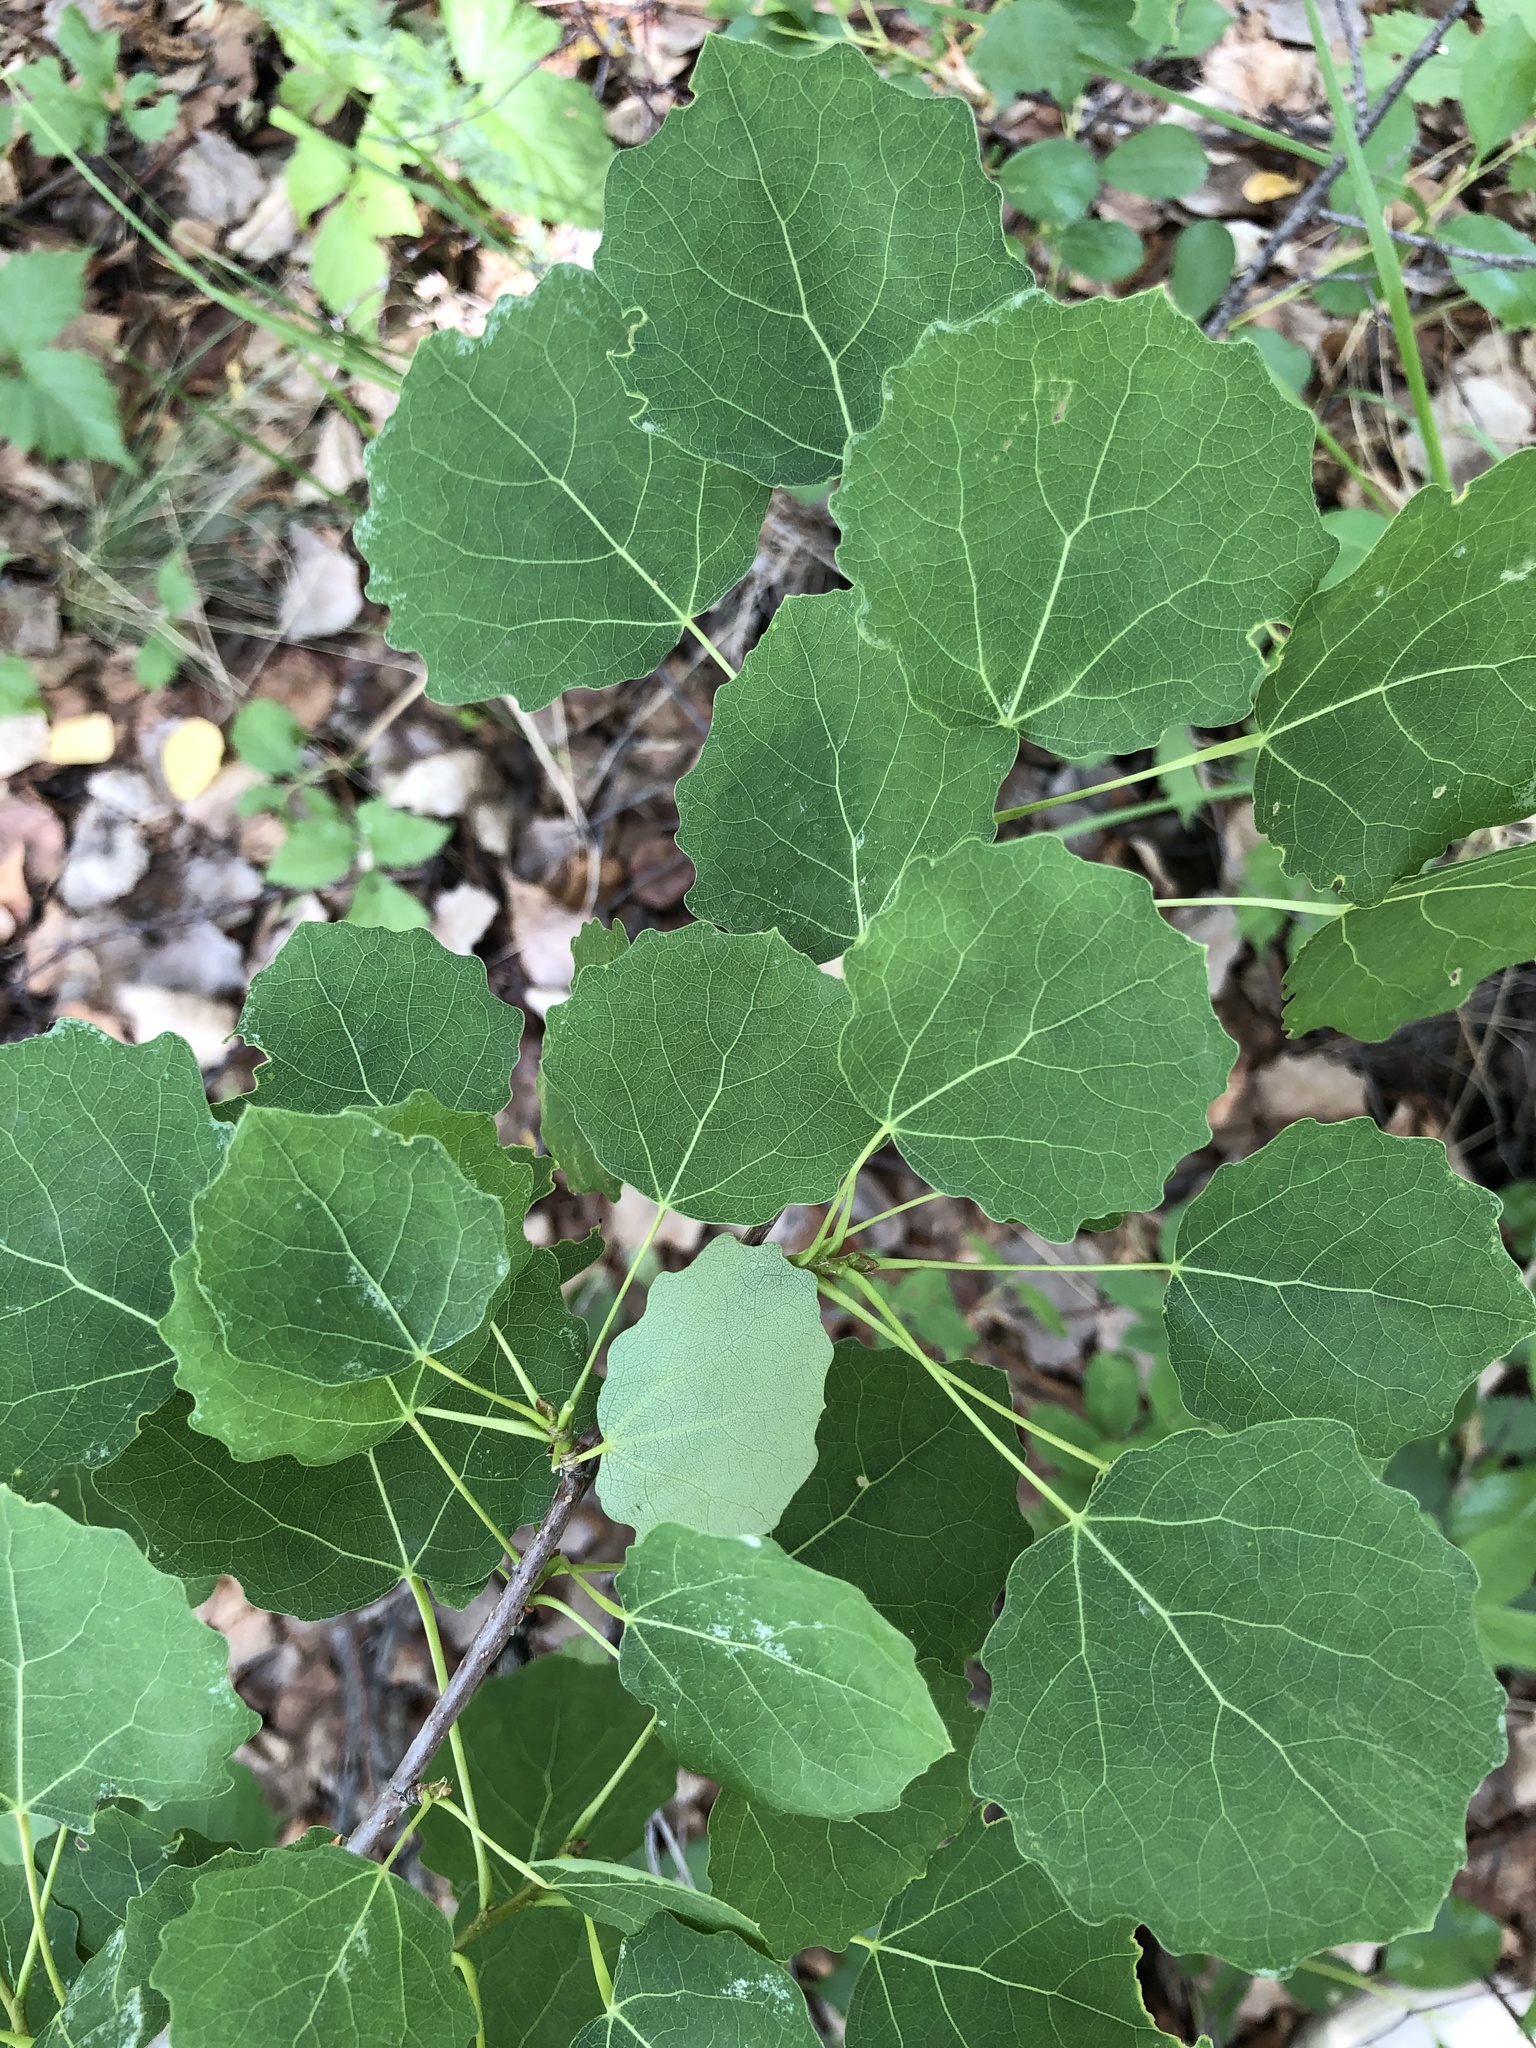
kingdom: Plantae
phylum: Tracheophyta
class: Magnoliopsida
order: Malpighiales
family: Salicaceae
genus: Populus
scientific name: Populus tremula
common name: European aspen
